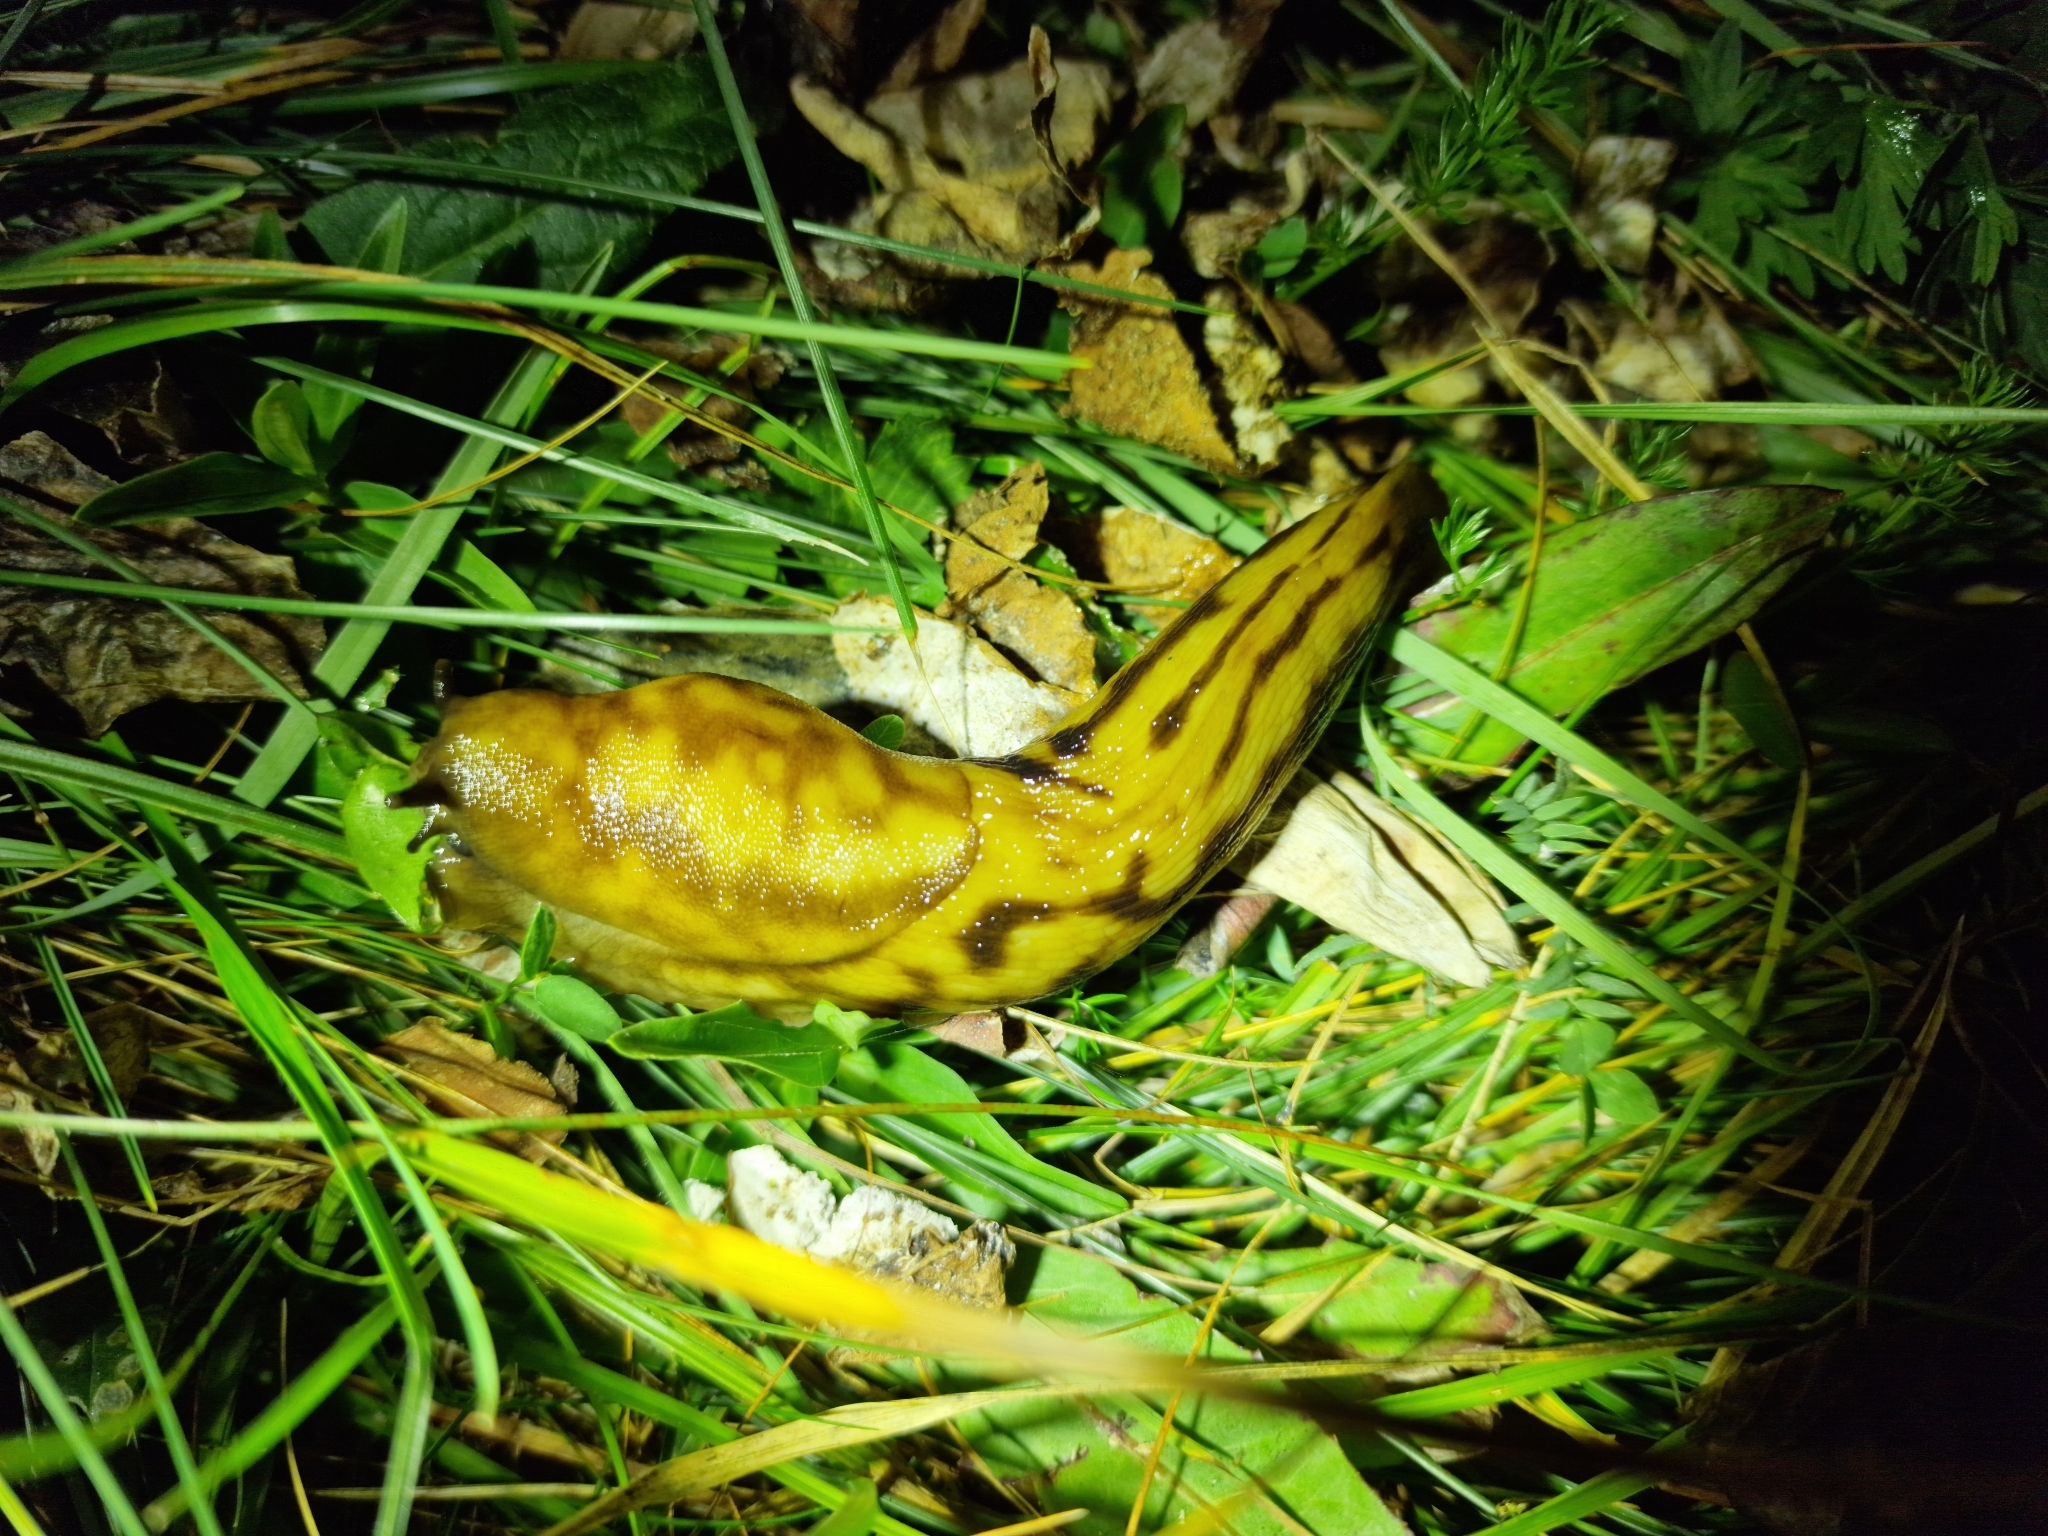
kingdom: Animalia
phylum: Mollusca
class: Gastropoda
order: Stylommatophora
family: Limacidae
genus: Eumilax
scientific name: Eumilax brandti
